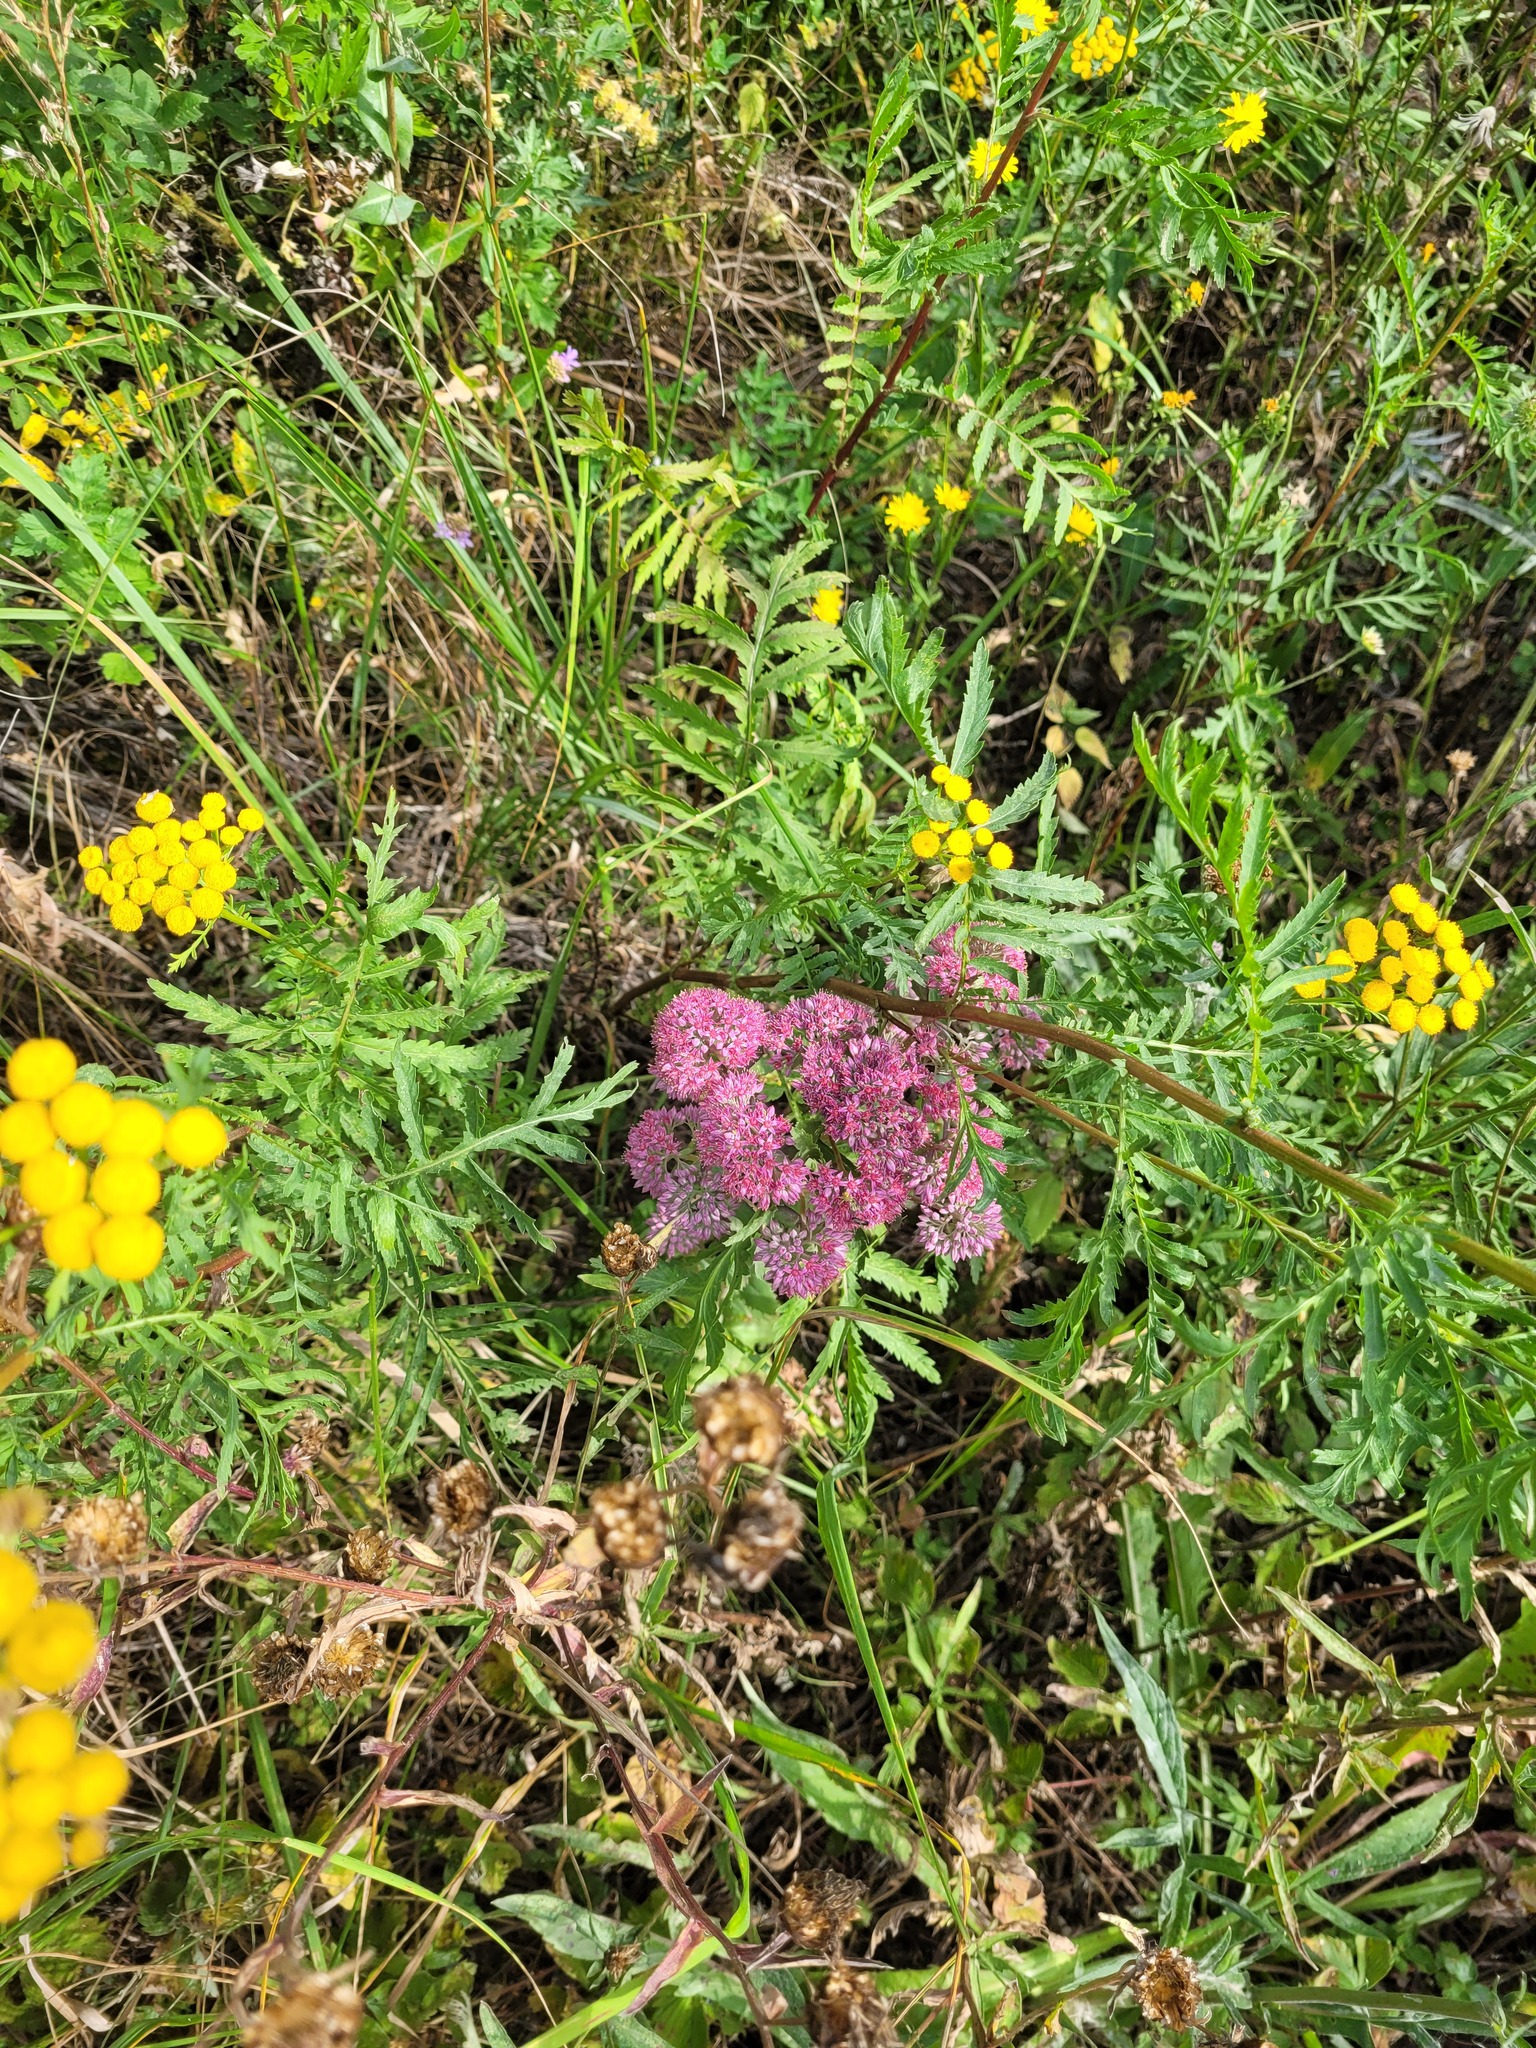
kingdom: Plantae
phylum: Tracheophyta
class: Magnoliopsida
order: Saxifragales
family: Crassulaceae
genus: Hylotelephium
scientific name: Hylotelephium telephium
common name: Live-forever
